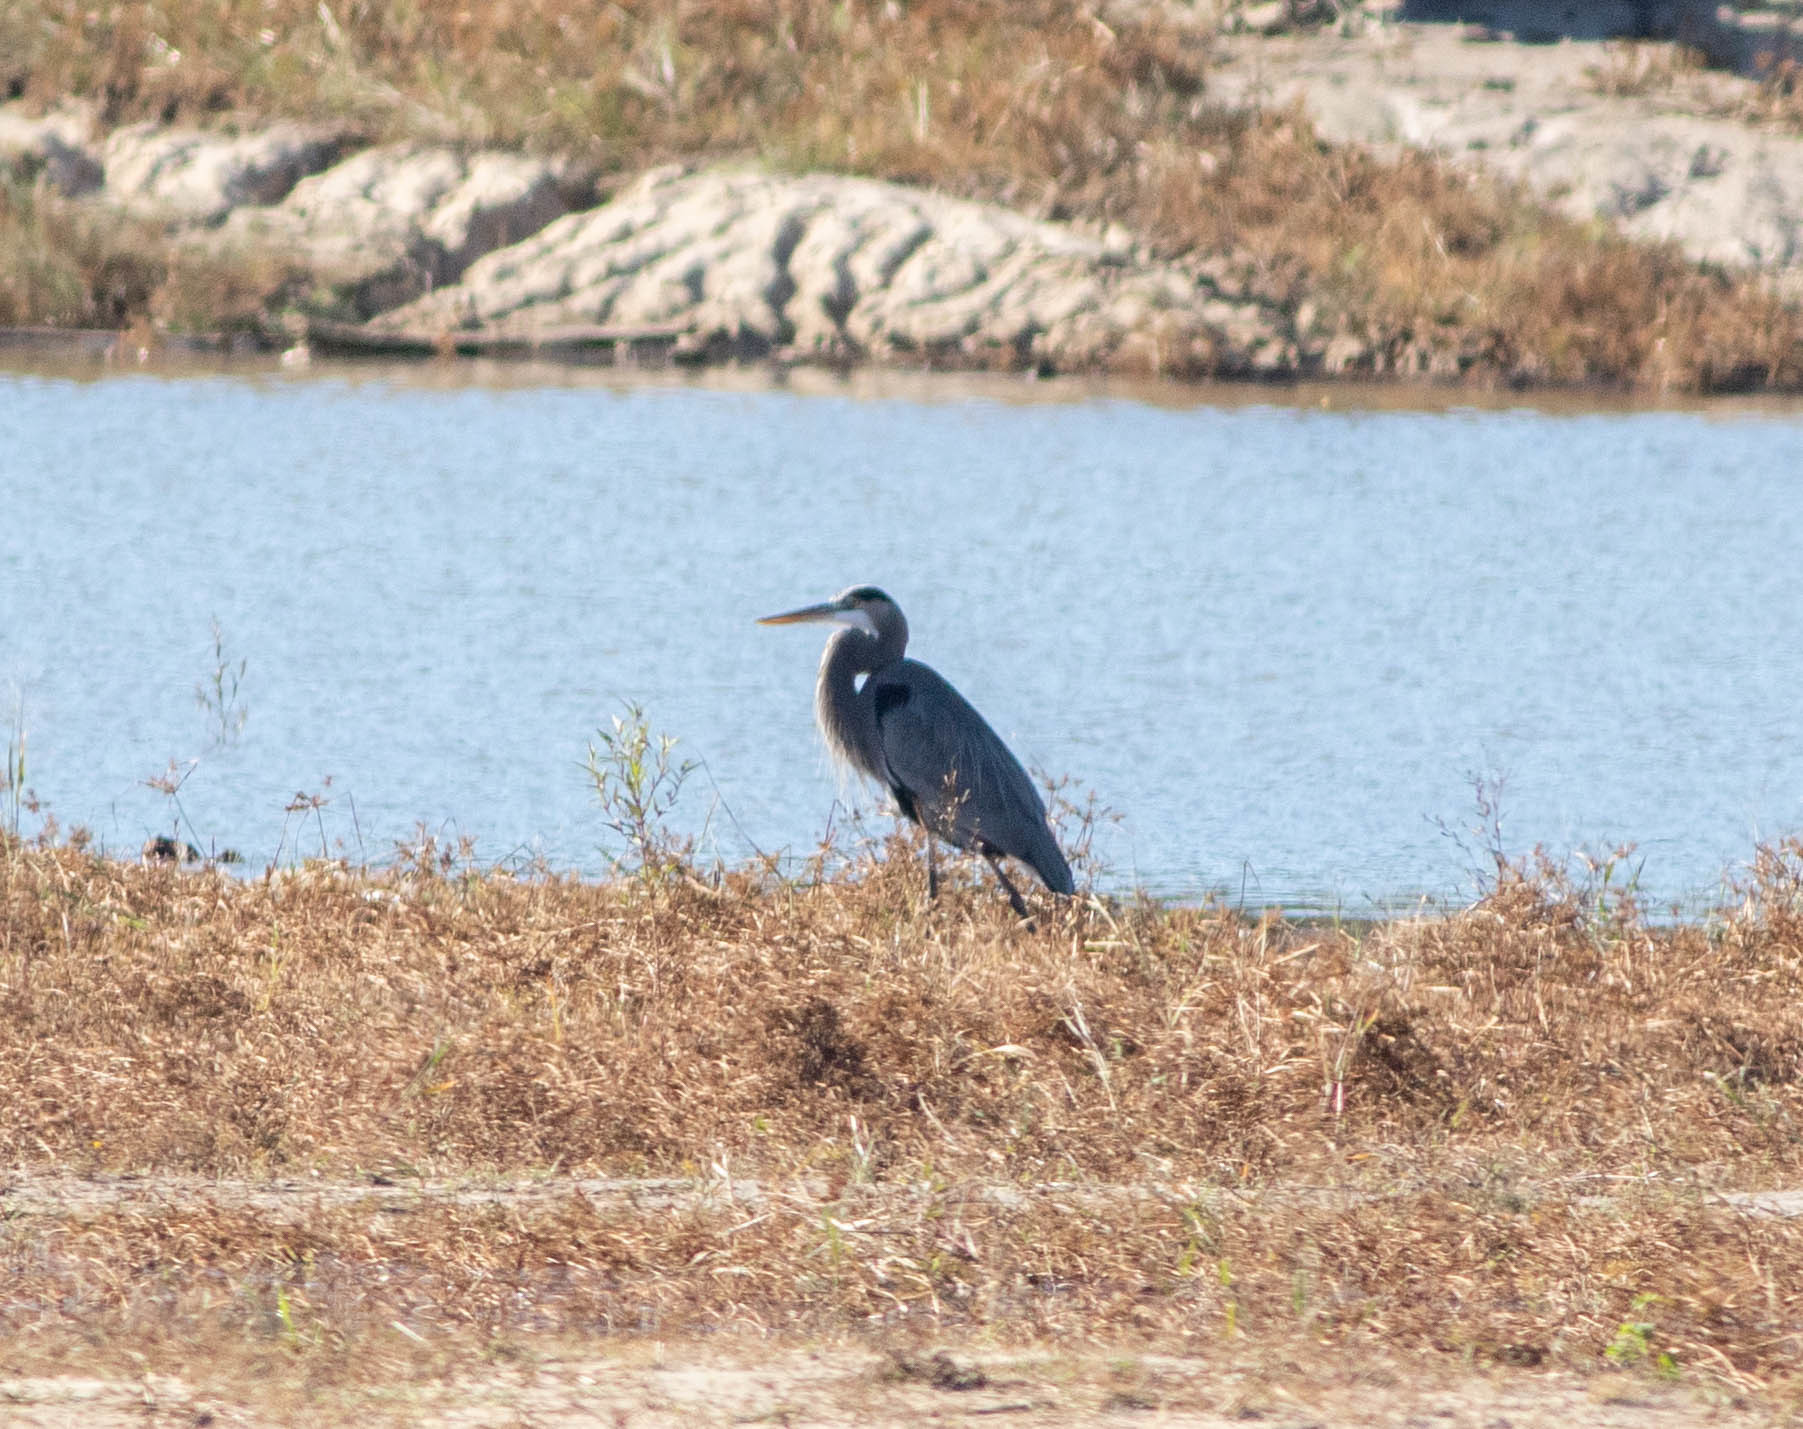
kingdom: Animalia
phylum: Chordata
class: Aves
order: Pelecaniformes
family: Ardeidae
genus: Ardea
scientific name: Ardea herodias
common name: Great blue heron
